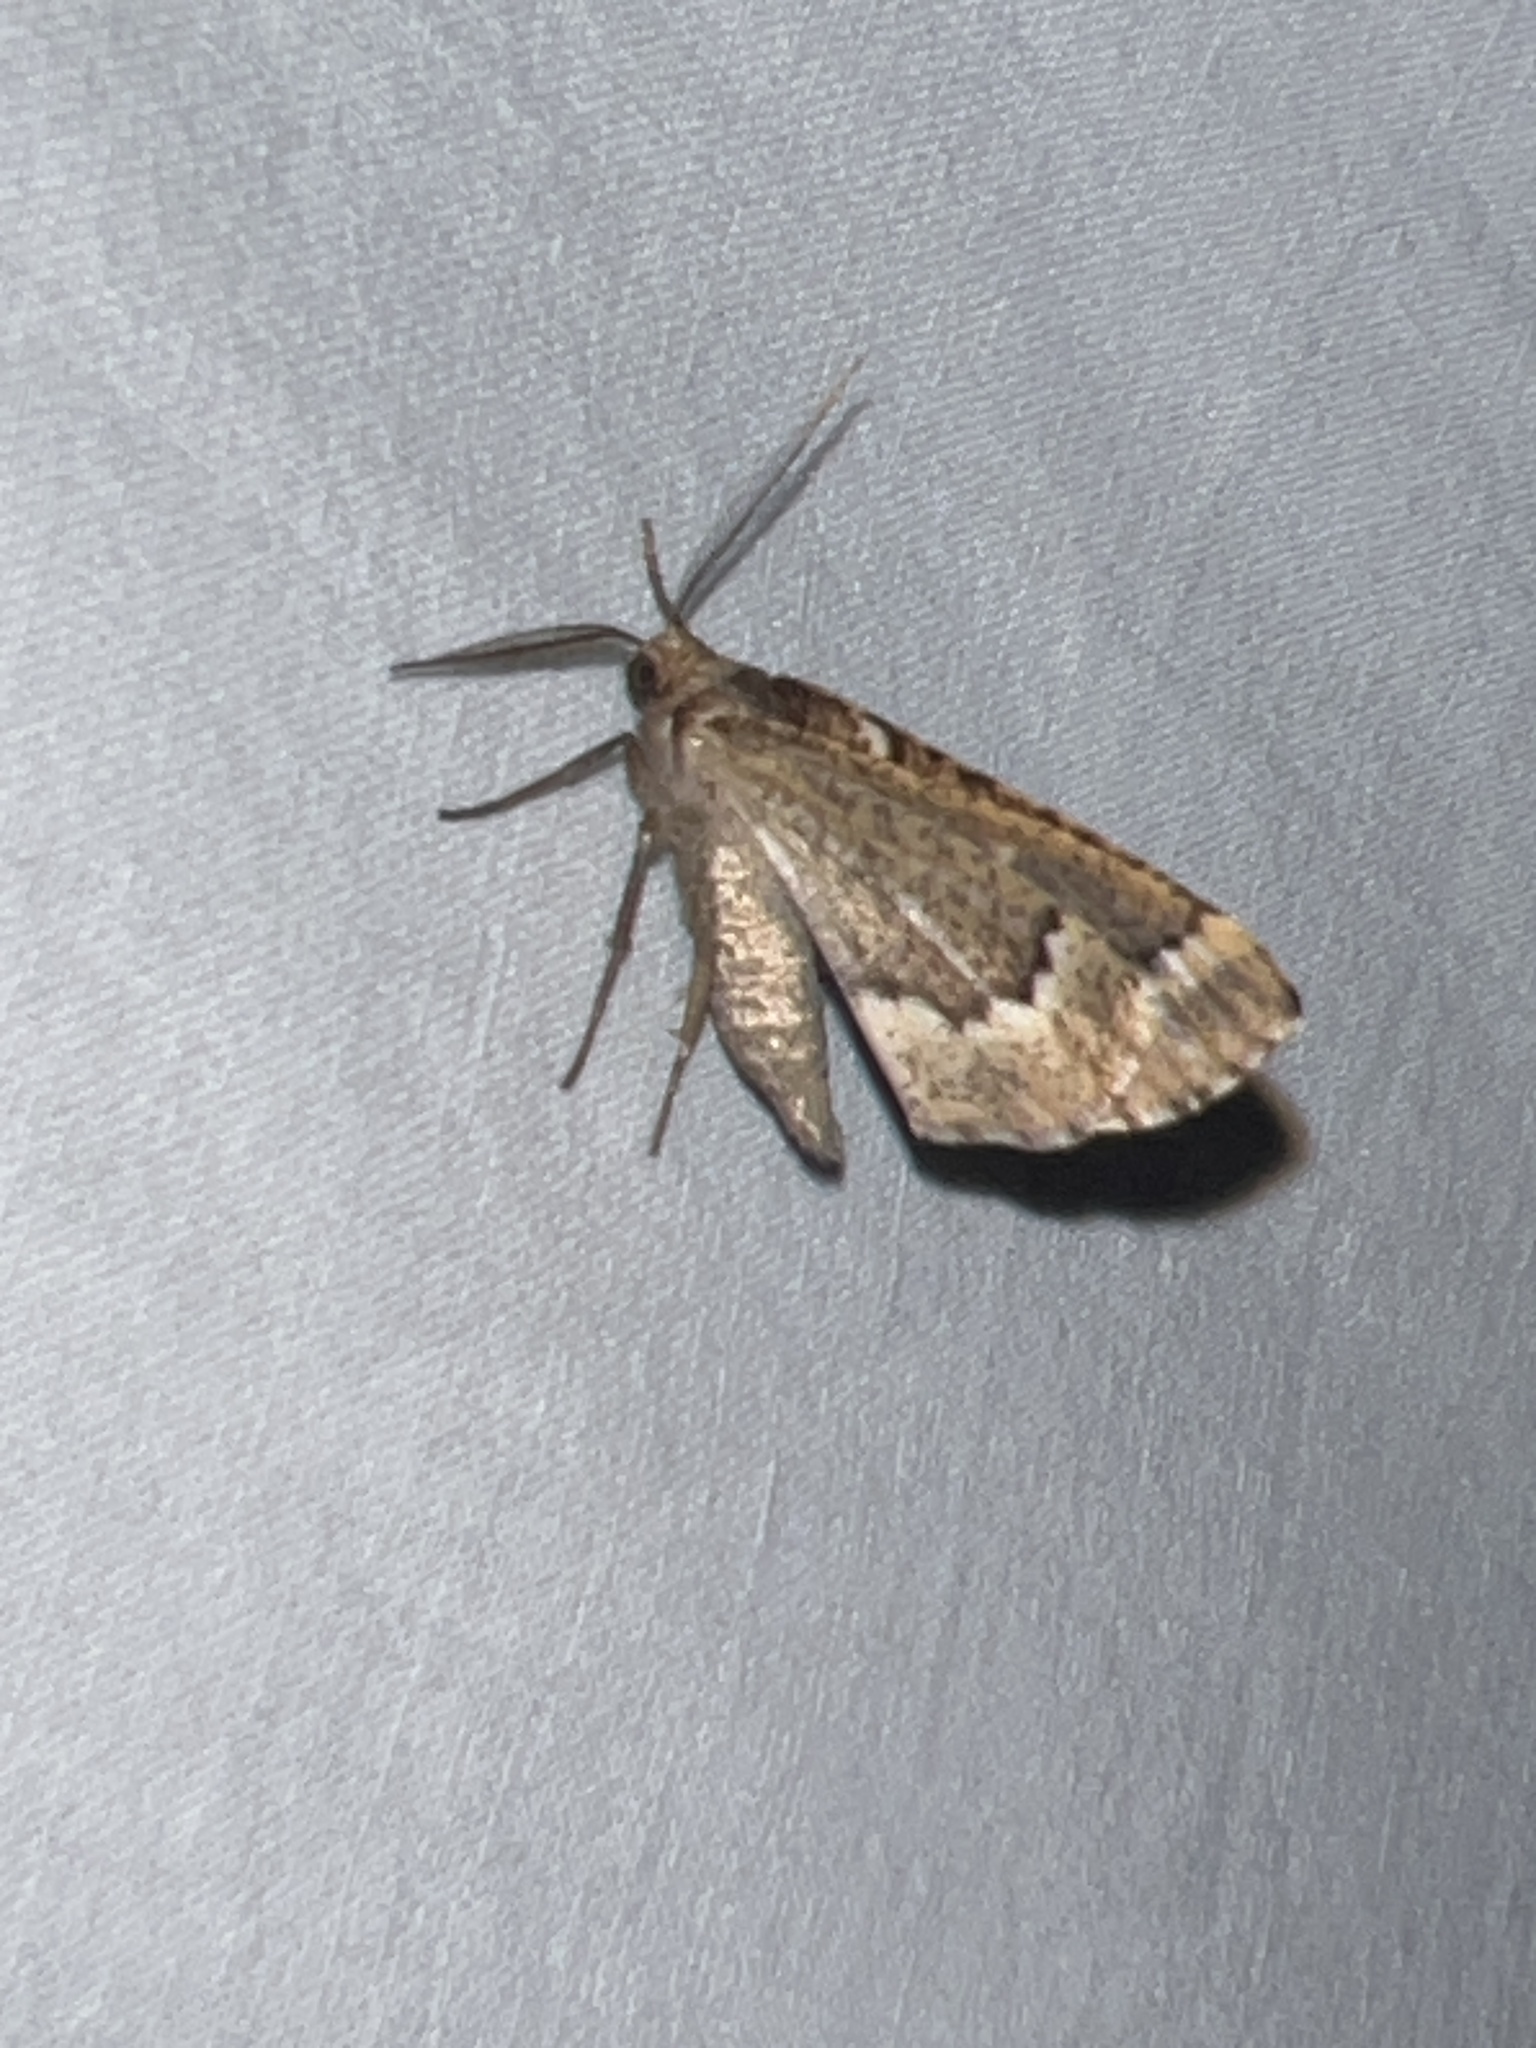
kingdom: Animalia
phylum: Arthropoda
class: Insecta
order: Lepidoptera
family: Geometridae
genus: Caripeta
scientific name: Caripeta divisata
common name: Gray spruce looper
